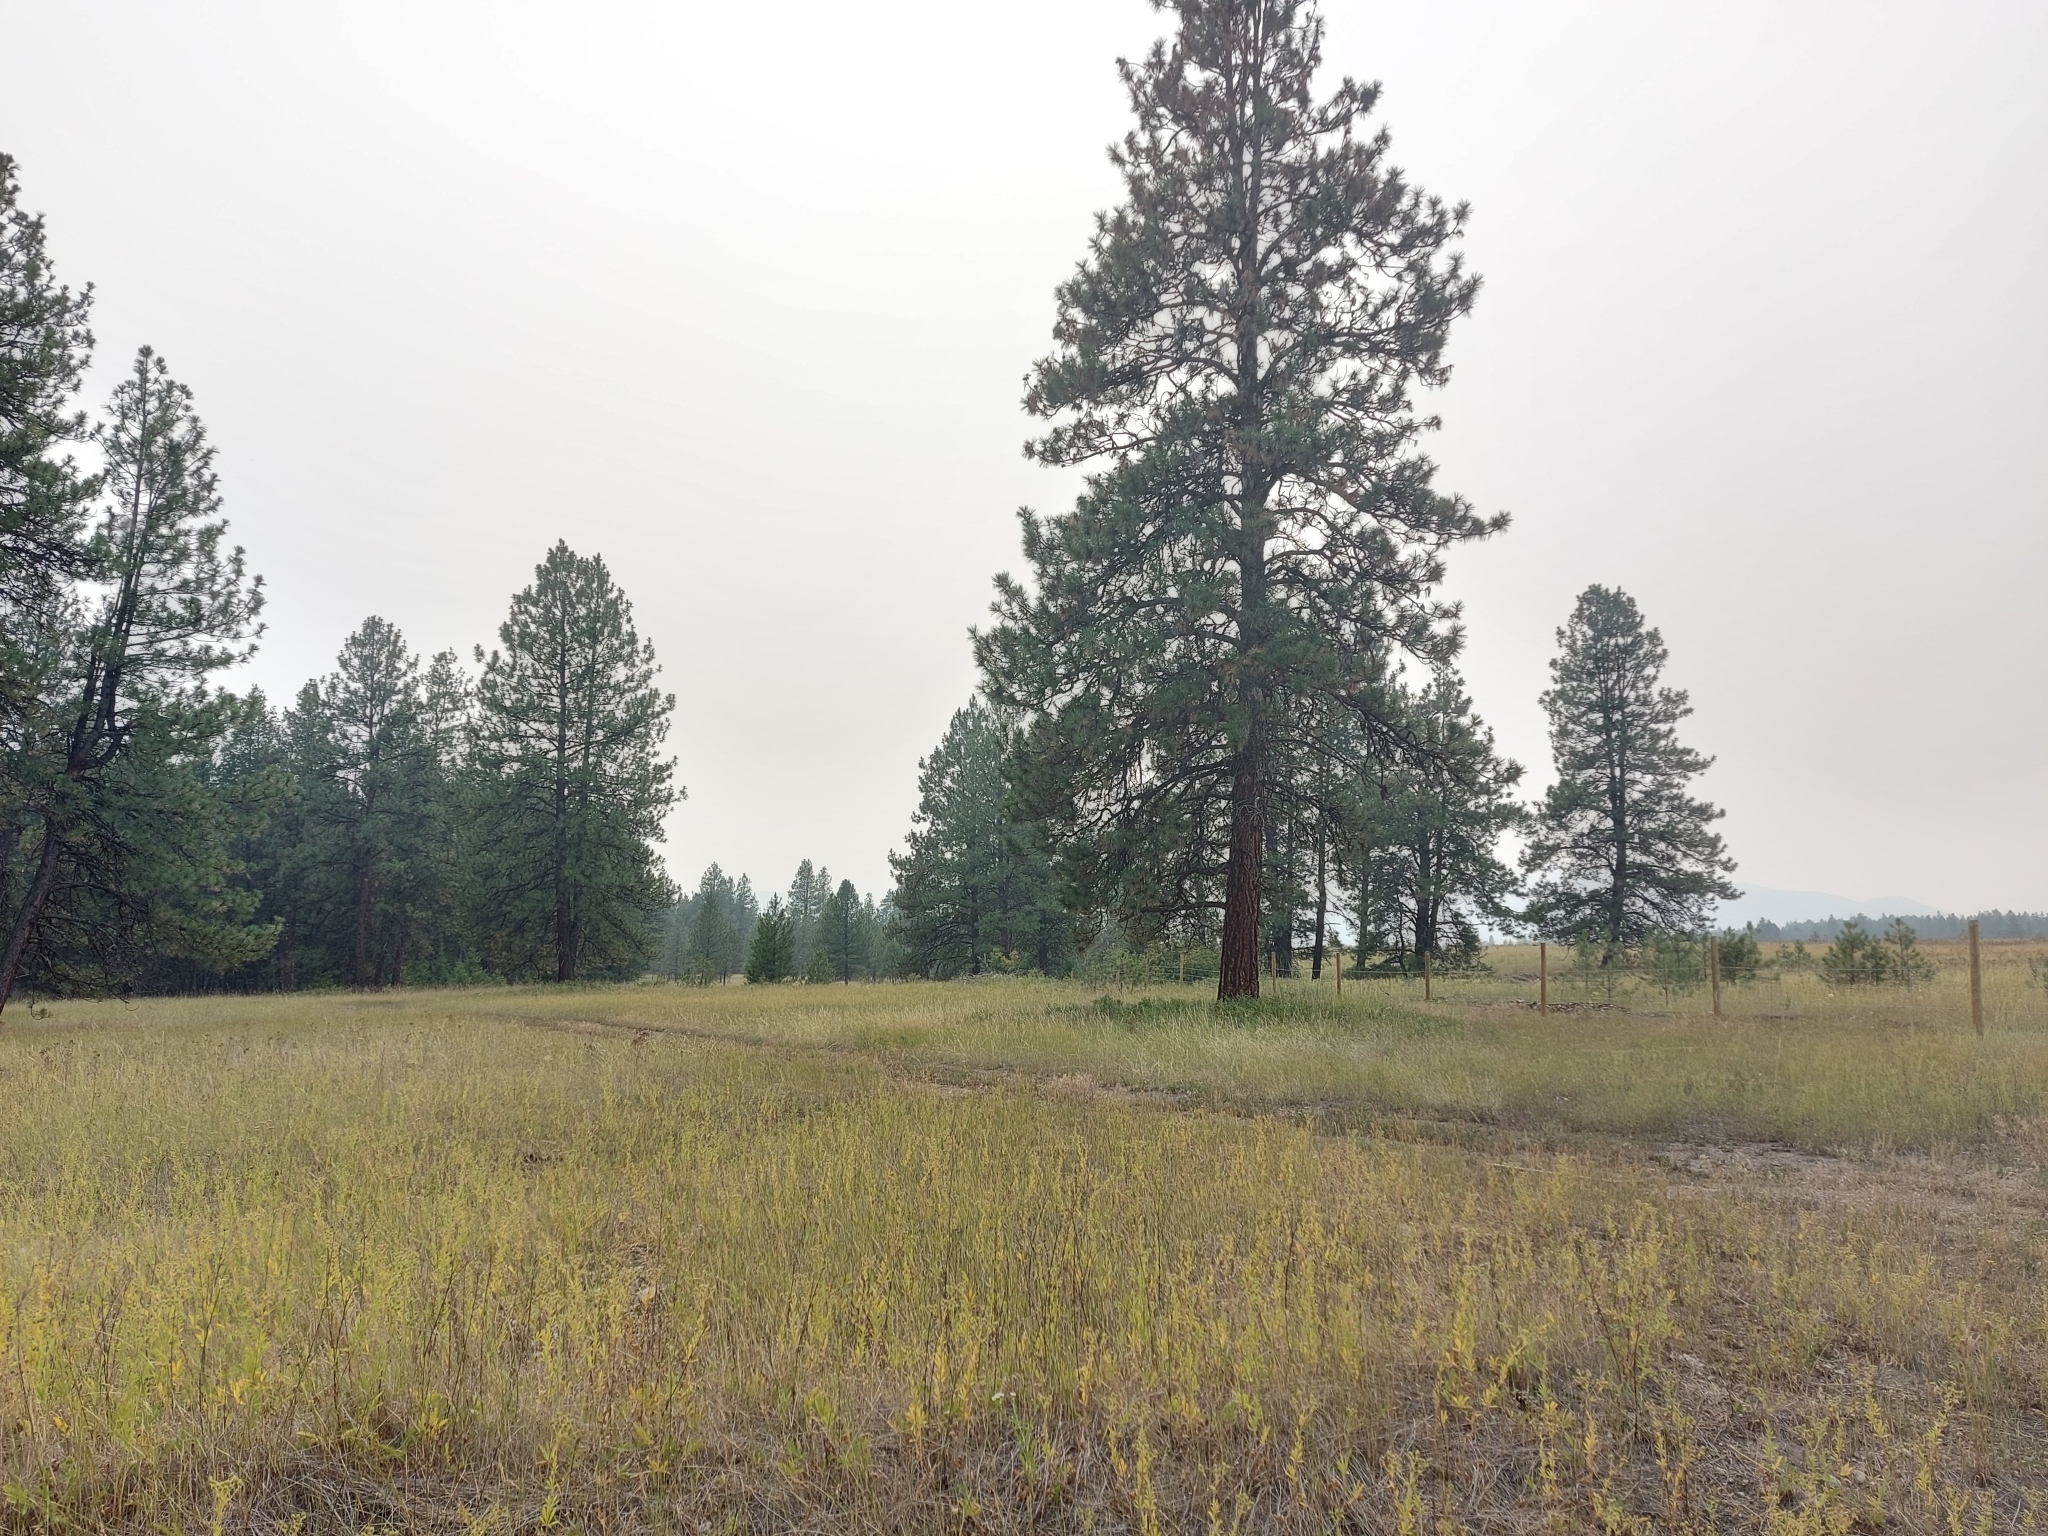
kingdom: Animalia
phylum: Chordata
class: Aves
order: Passeriformes
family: Passerellidae
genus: Pooecetes
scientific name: Pooecetes gramineus
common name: Vesper sparrow
